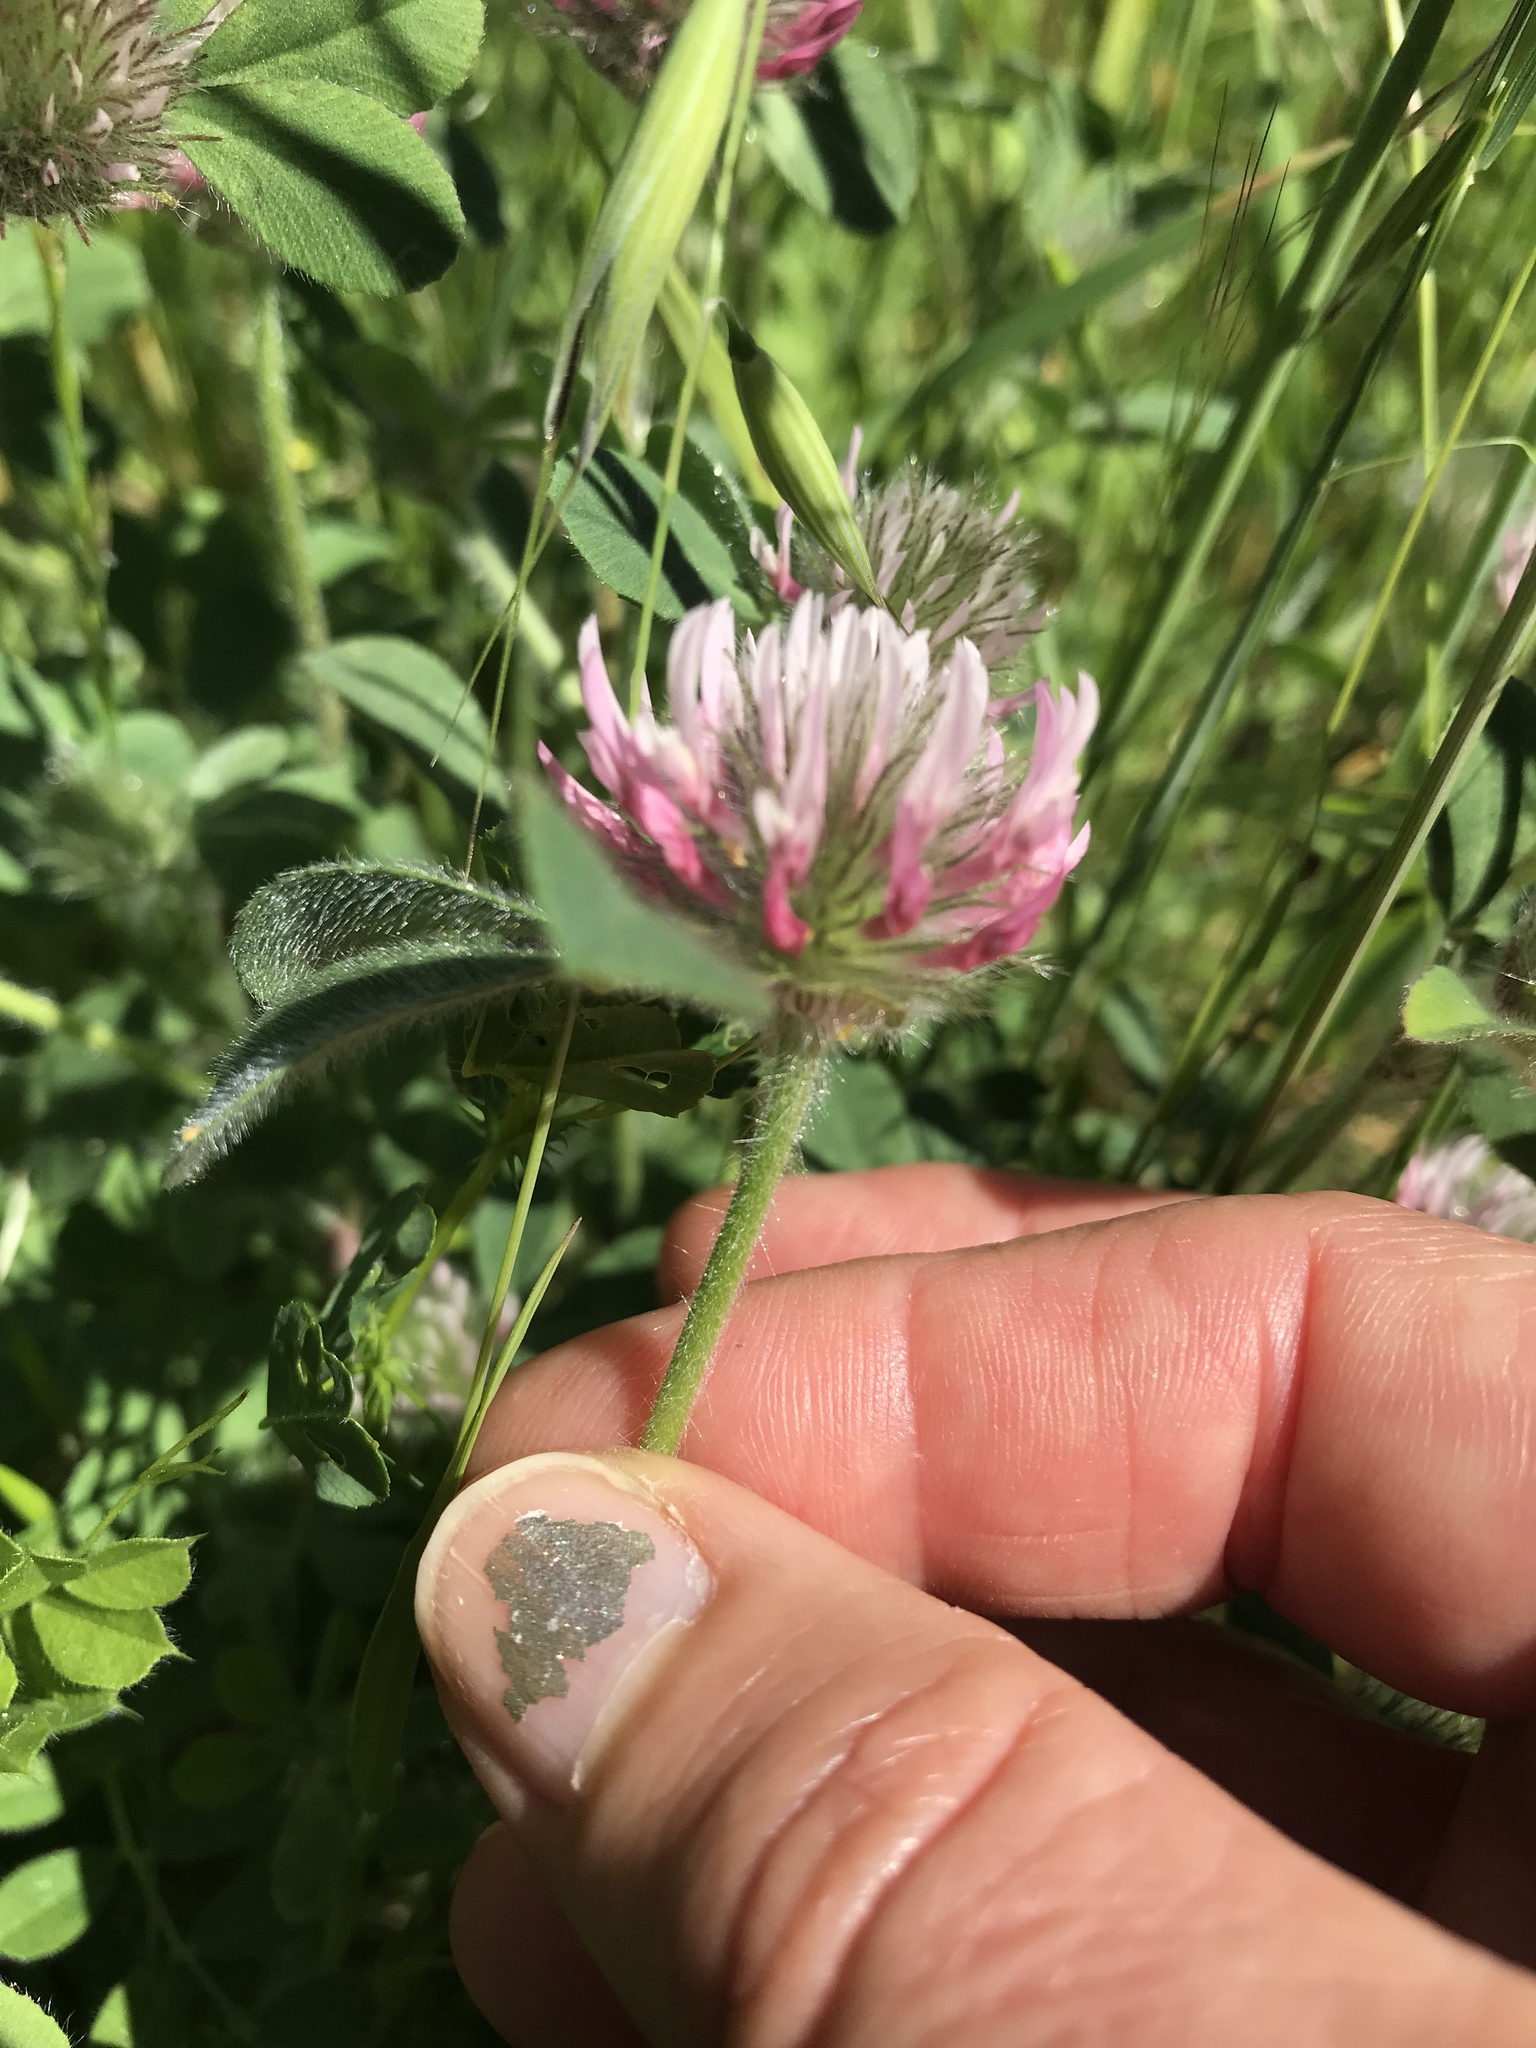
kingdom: Plantae
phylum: Tracheophyta
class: Magnoliopsida
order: Fabales
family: Fabaceae
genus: Trifolium
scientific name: Trifolium hirtum
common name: Rose clover
